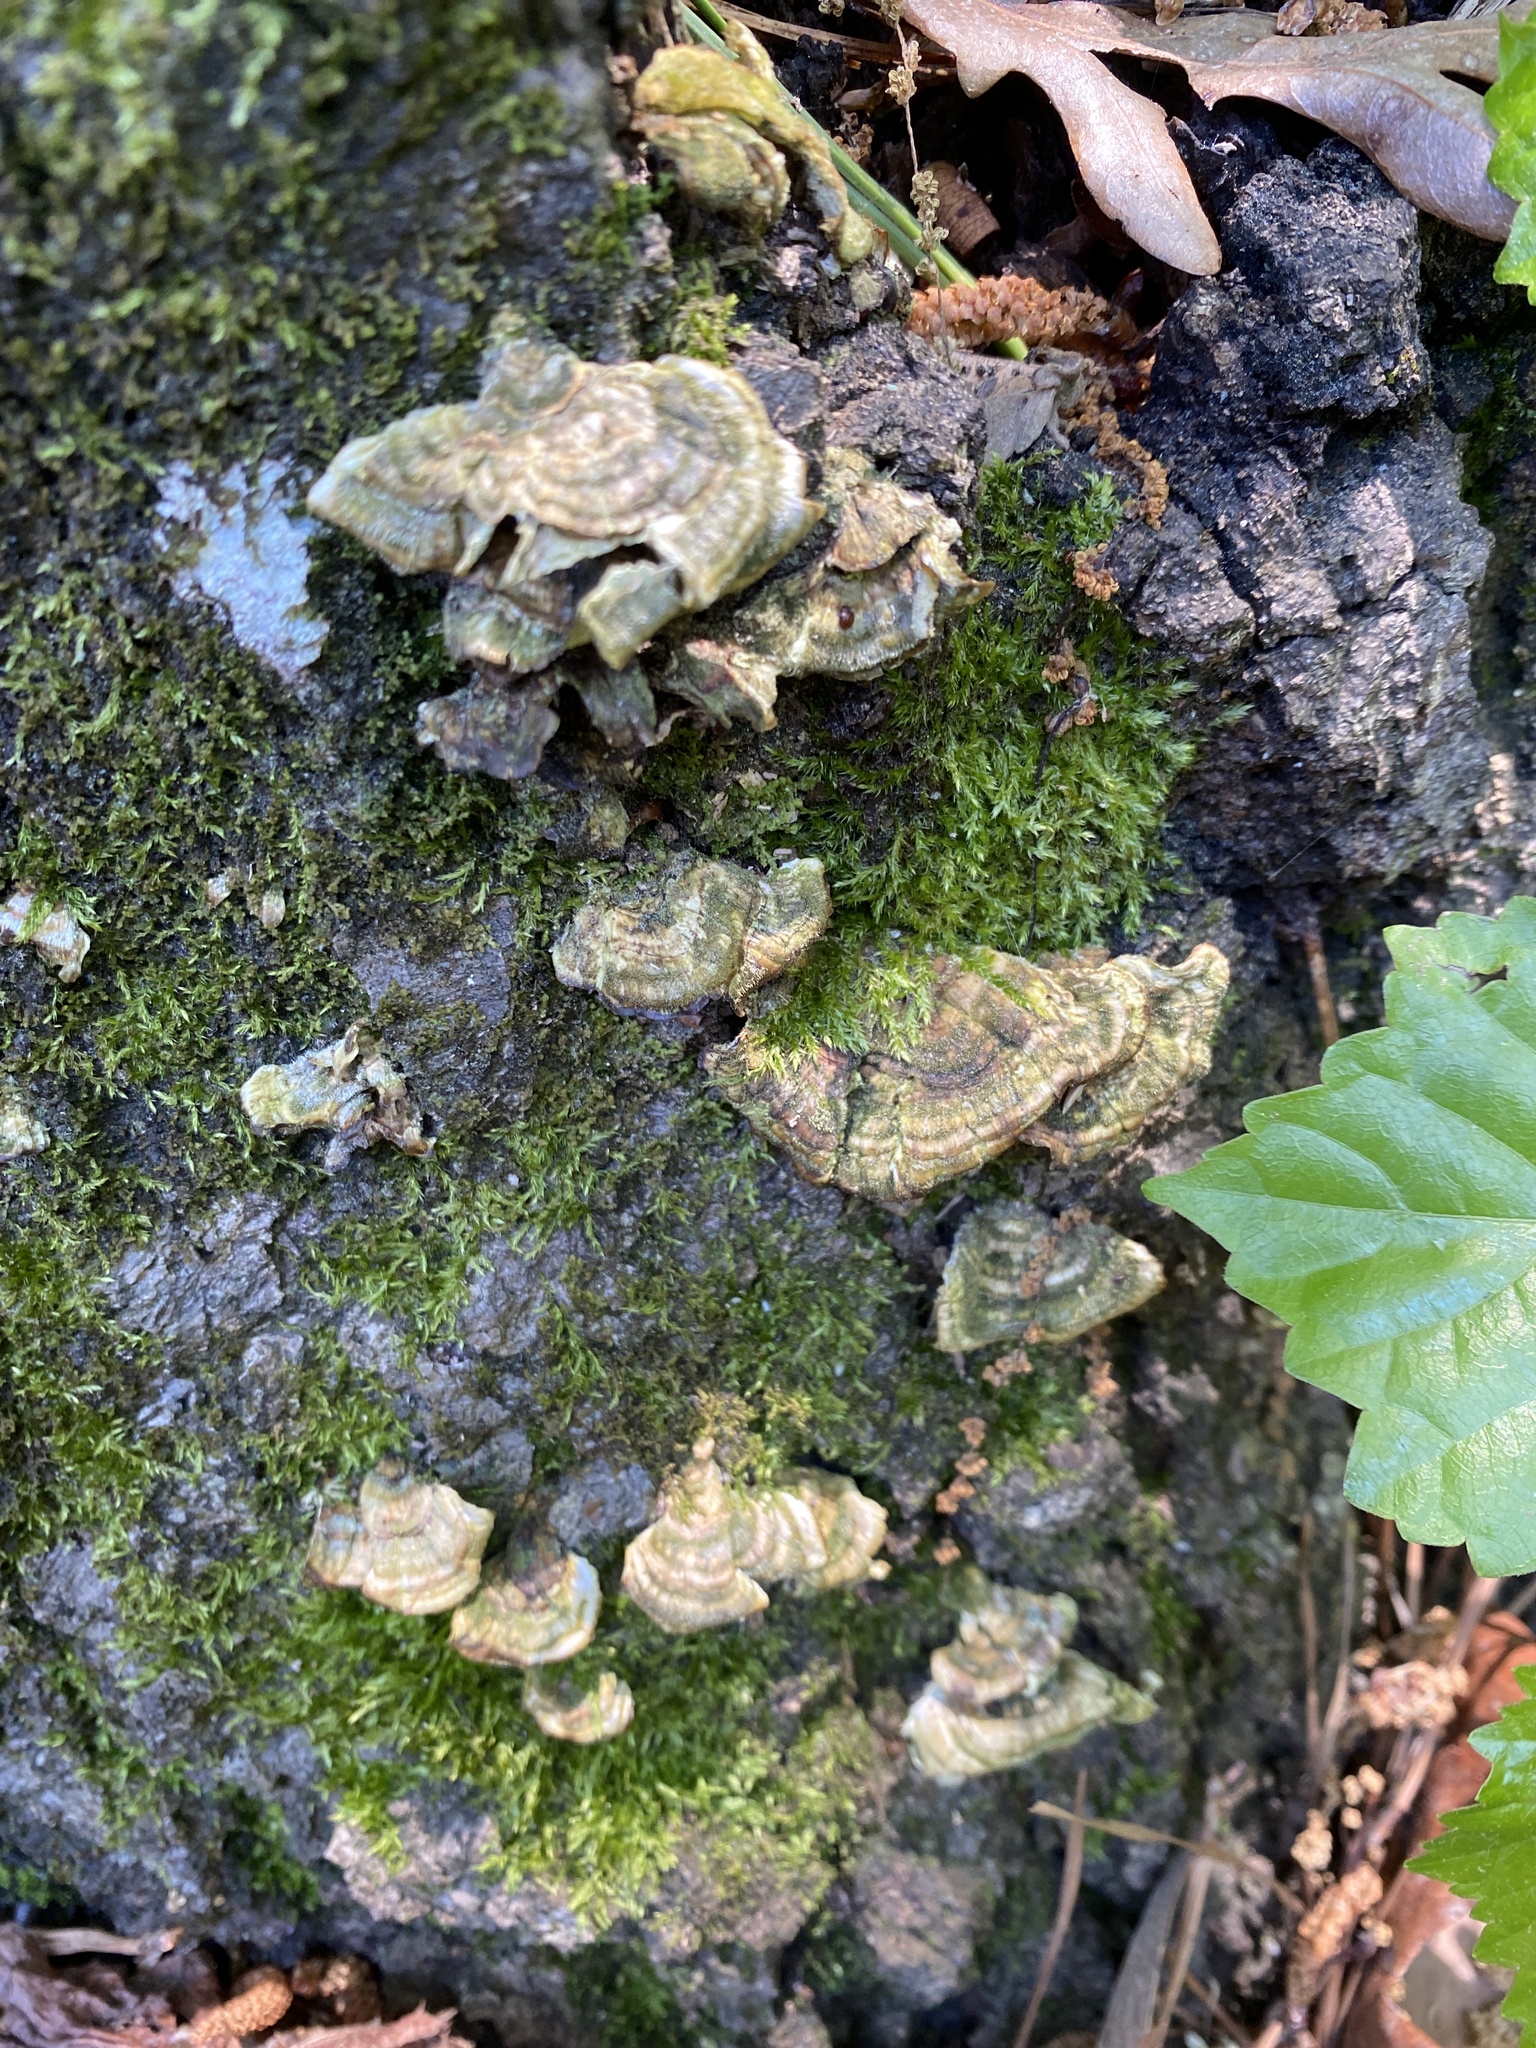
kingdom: Fungi
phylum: Basidiomycota
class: Agaricomycetes
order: Polyporales
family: Polyporaceae
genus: Trametes
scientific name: Trametes versicolor
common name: Turkeytail
